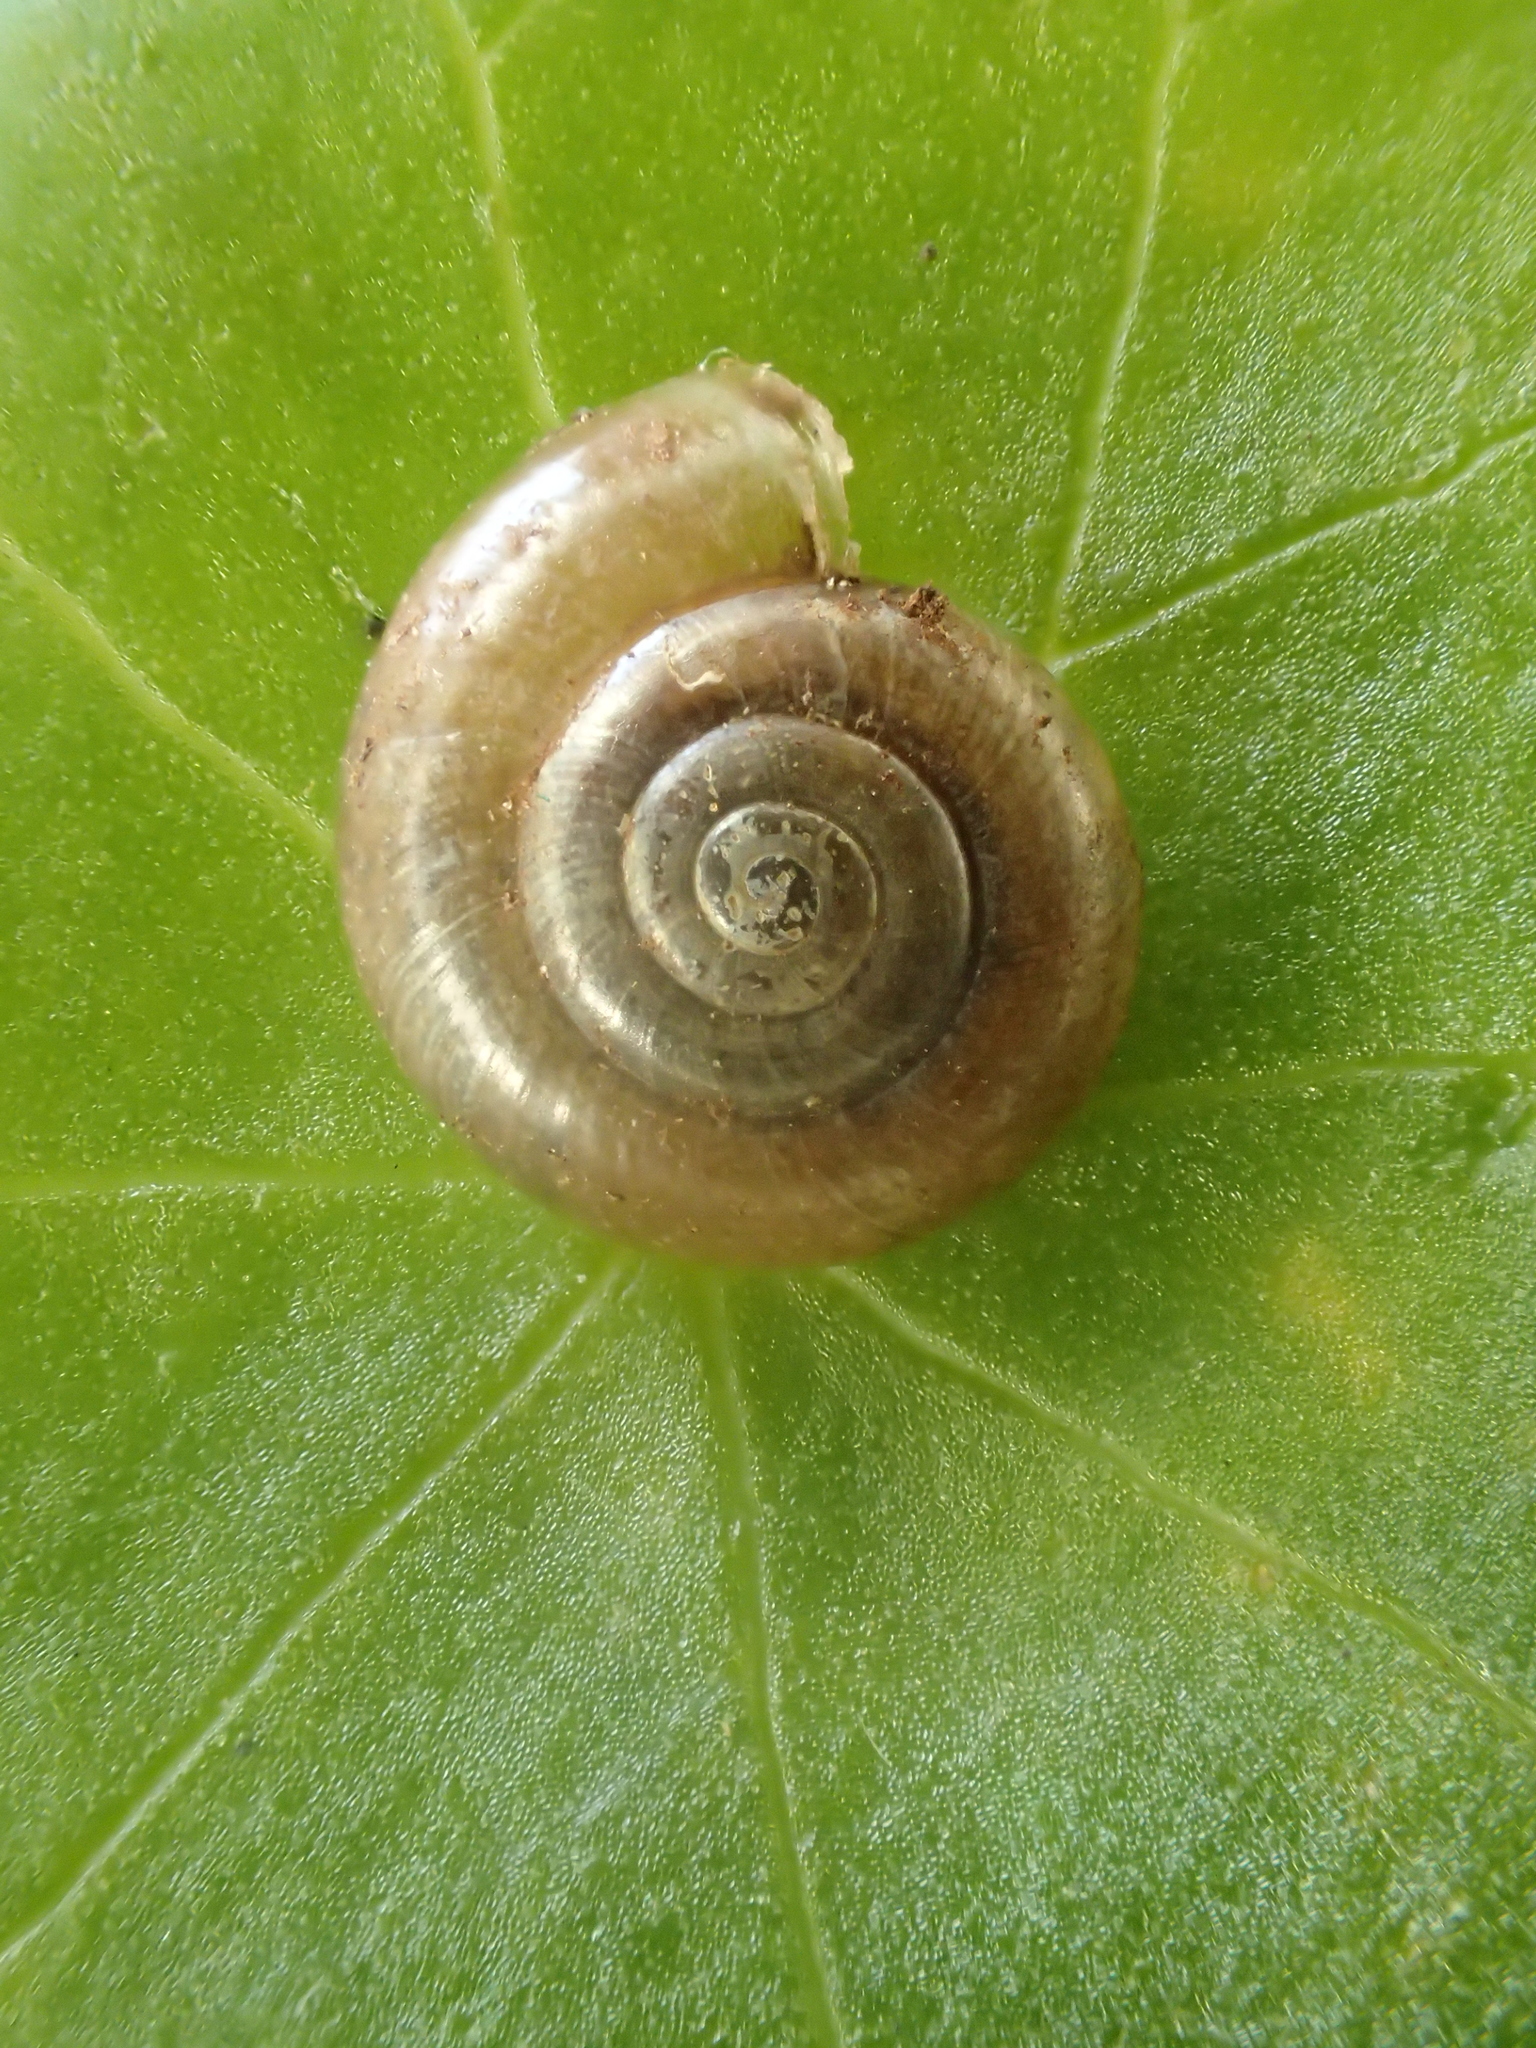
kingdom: Animalia
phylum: Mollusca
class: Gastropoda
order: Stylommatophora
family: Gastrodontidae
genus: Aegopinella
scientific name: Aegopinella nitidula
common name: Smooth glass snail
